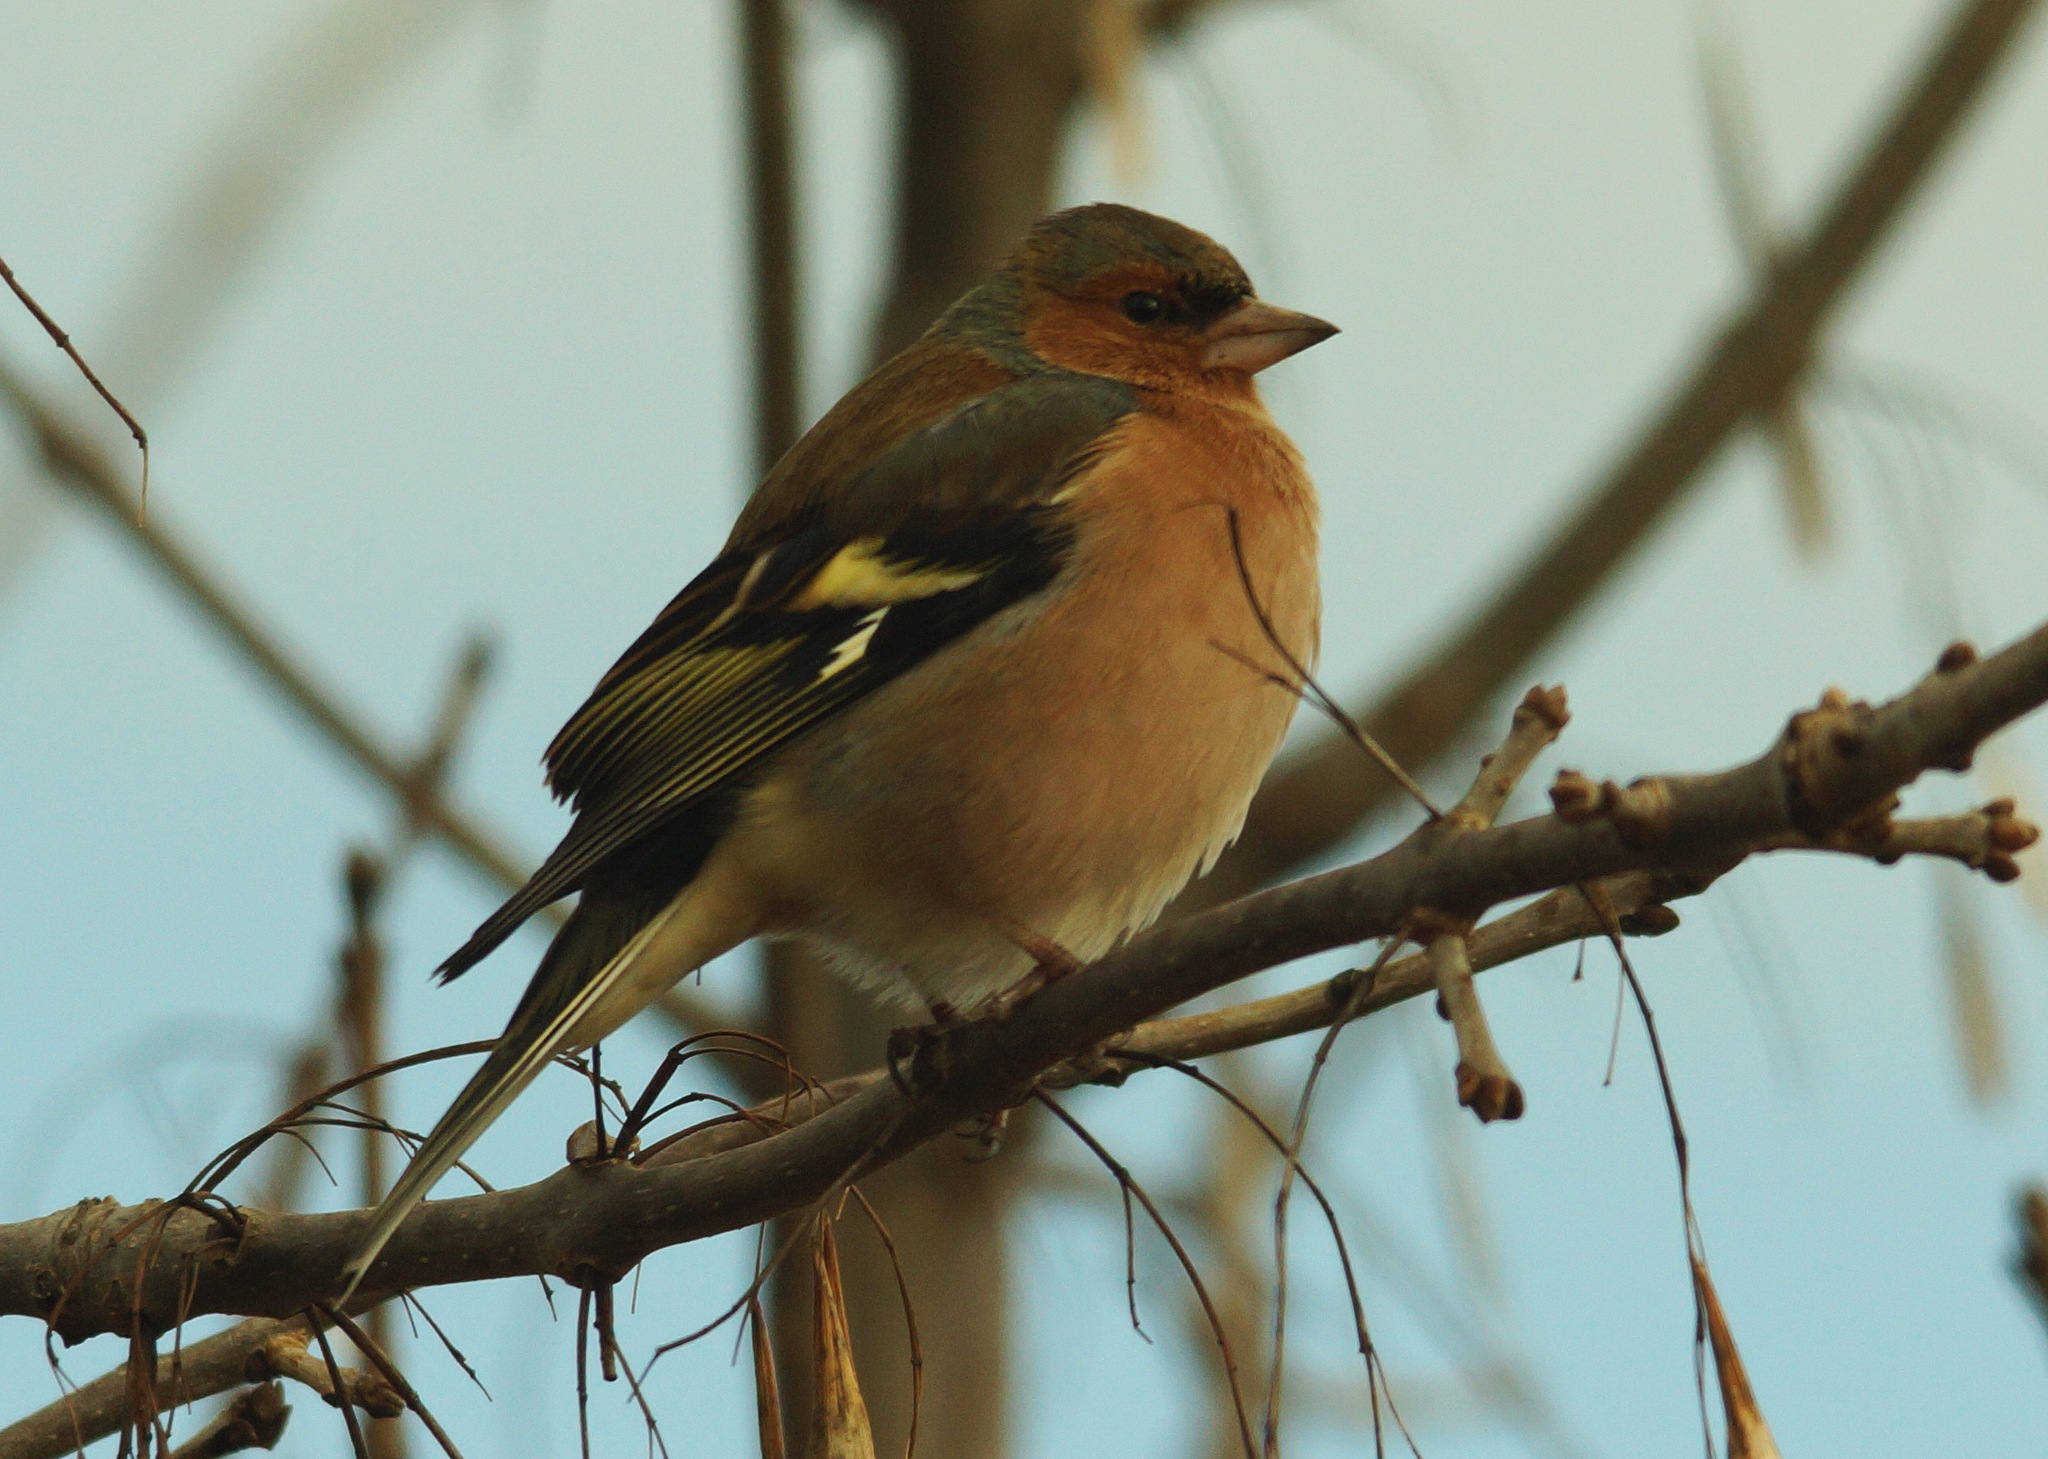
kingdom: Animalia
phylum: Chordata
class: Aves
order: Passeriformes
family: Fringillidae
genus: Fringilla
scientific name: Fringilla coelebs
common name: Common chaffinch
